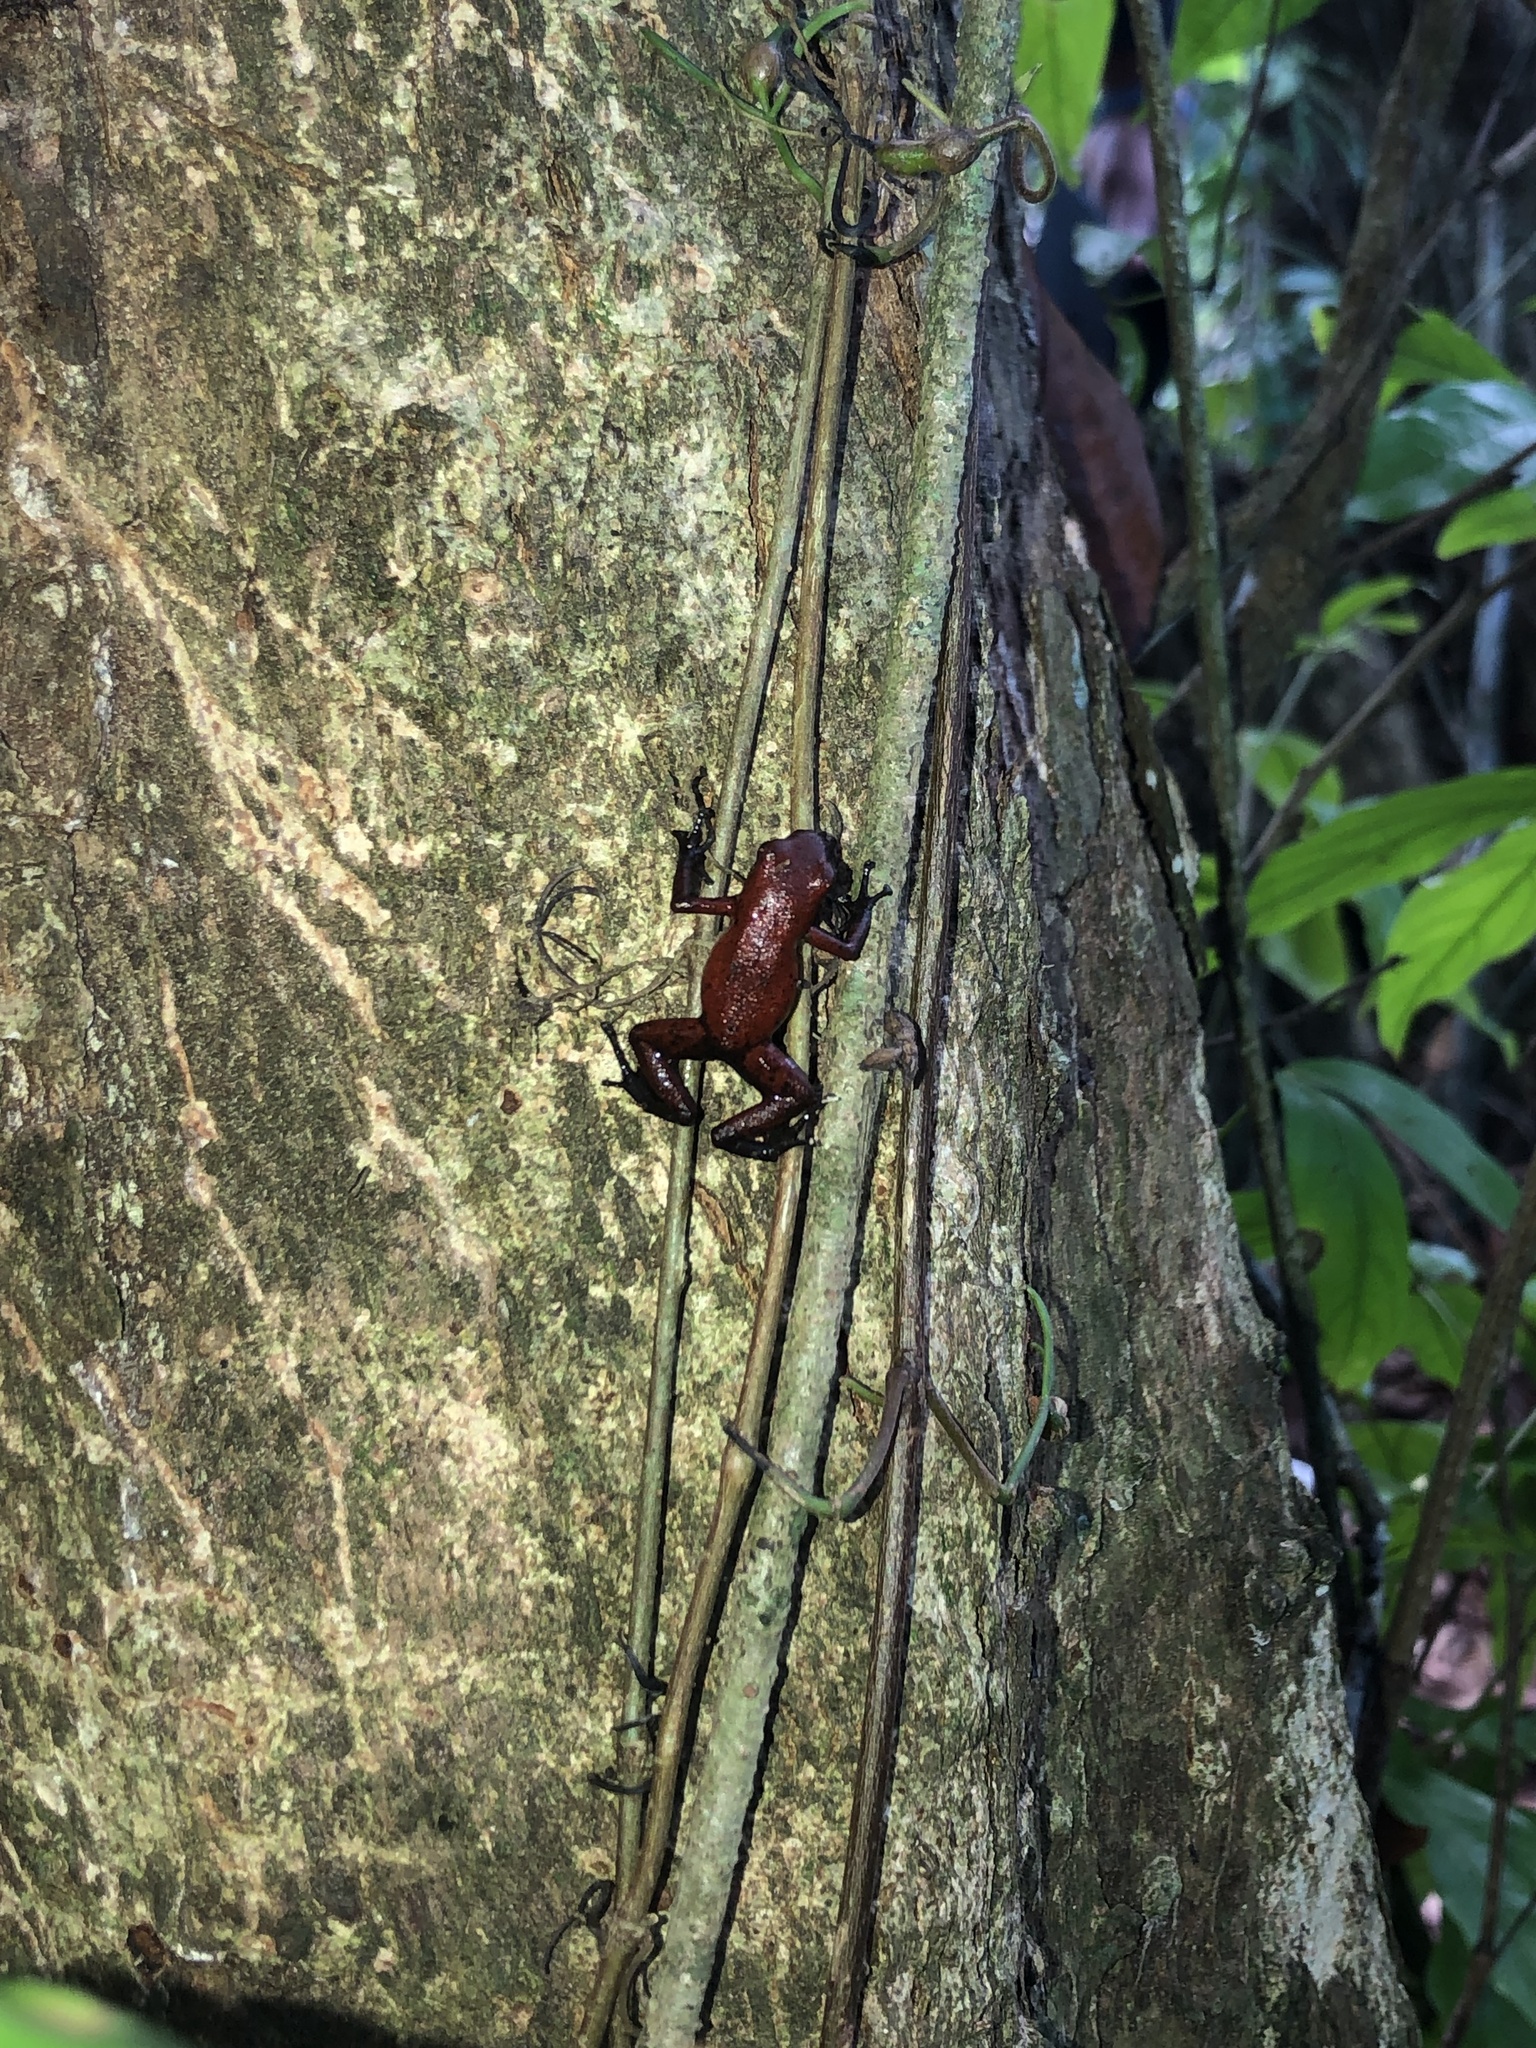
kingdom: Animalia
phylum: Chordata
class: Amphibia
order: Anura
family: Dendrobatidae
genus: Oophaga
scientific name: Oophaga pumilio
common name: Flaming poison frog
